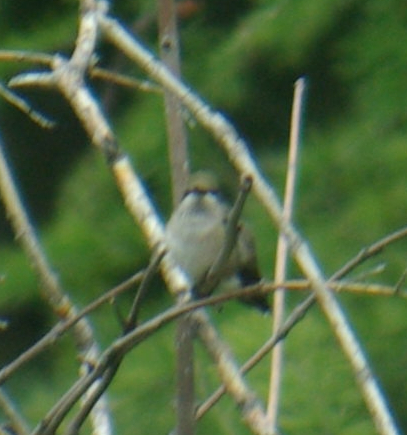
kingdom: Animalia
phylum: Chordata
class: Aves
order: Apodiformes
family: Trochilidae
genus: Archilochus
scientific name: Archilochus colubris
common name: Ruby-throated hummingbird
